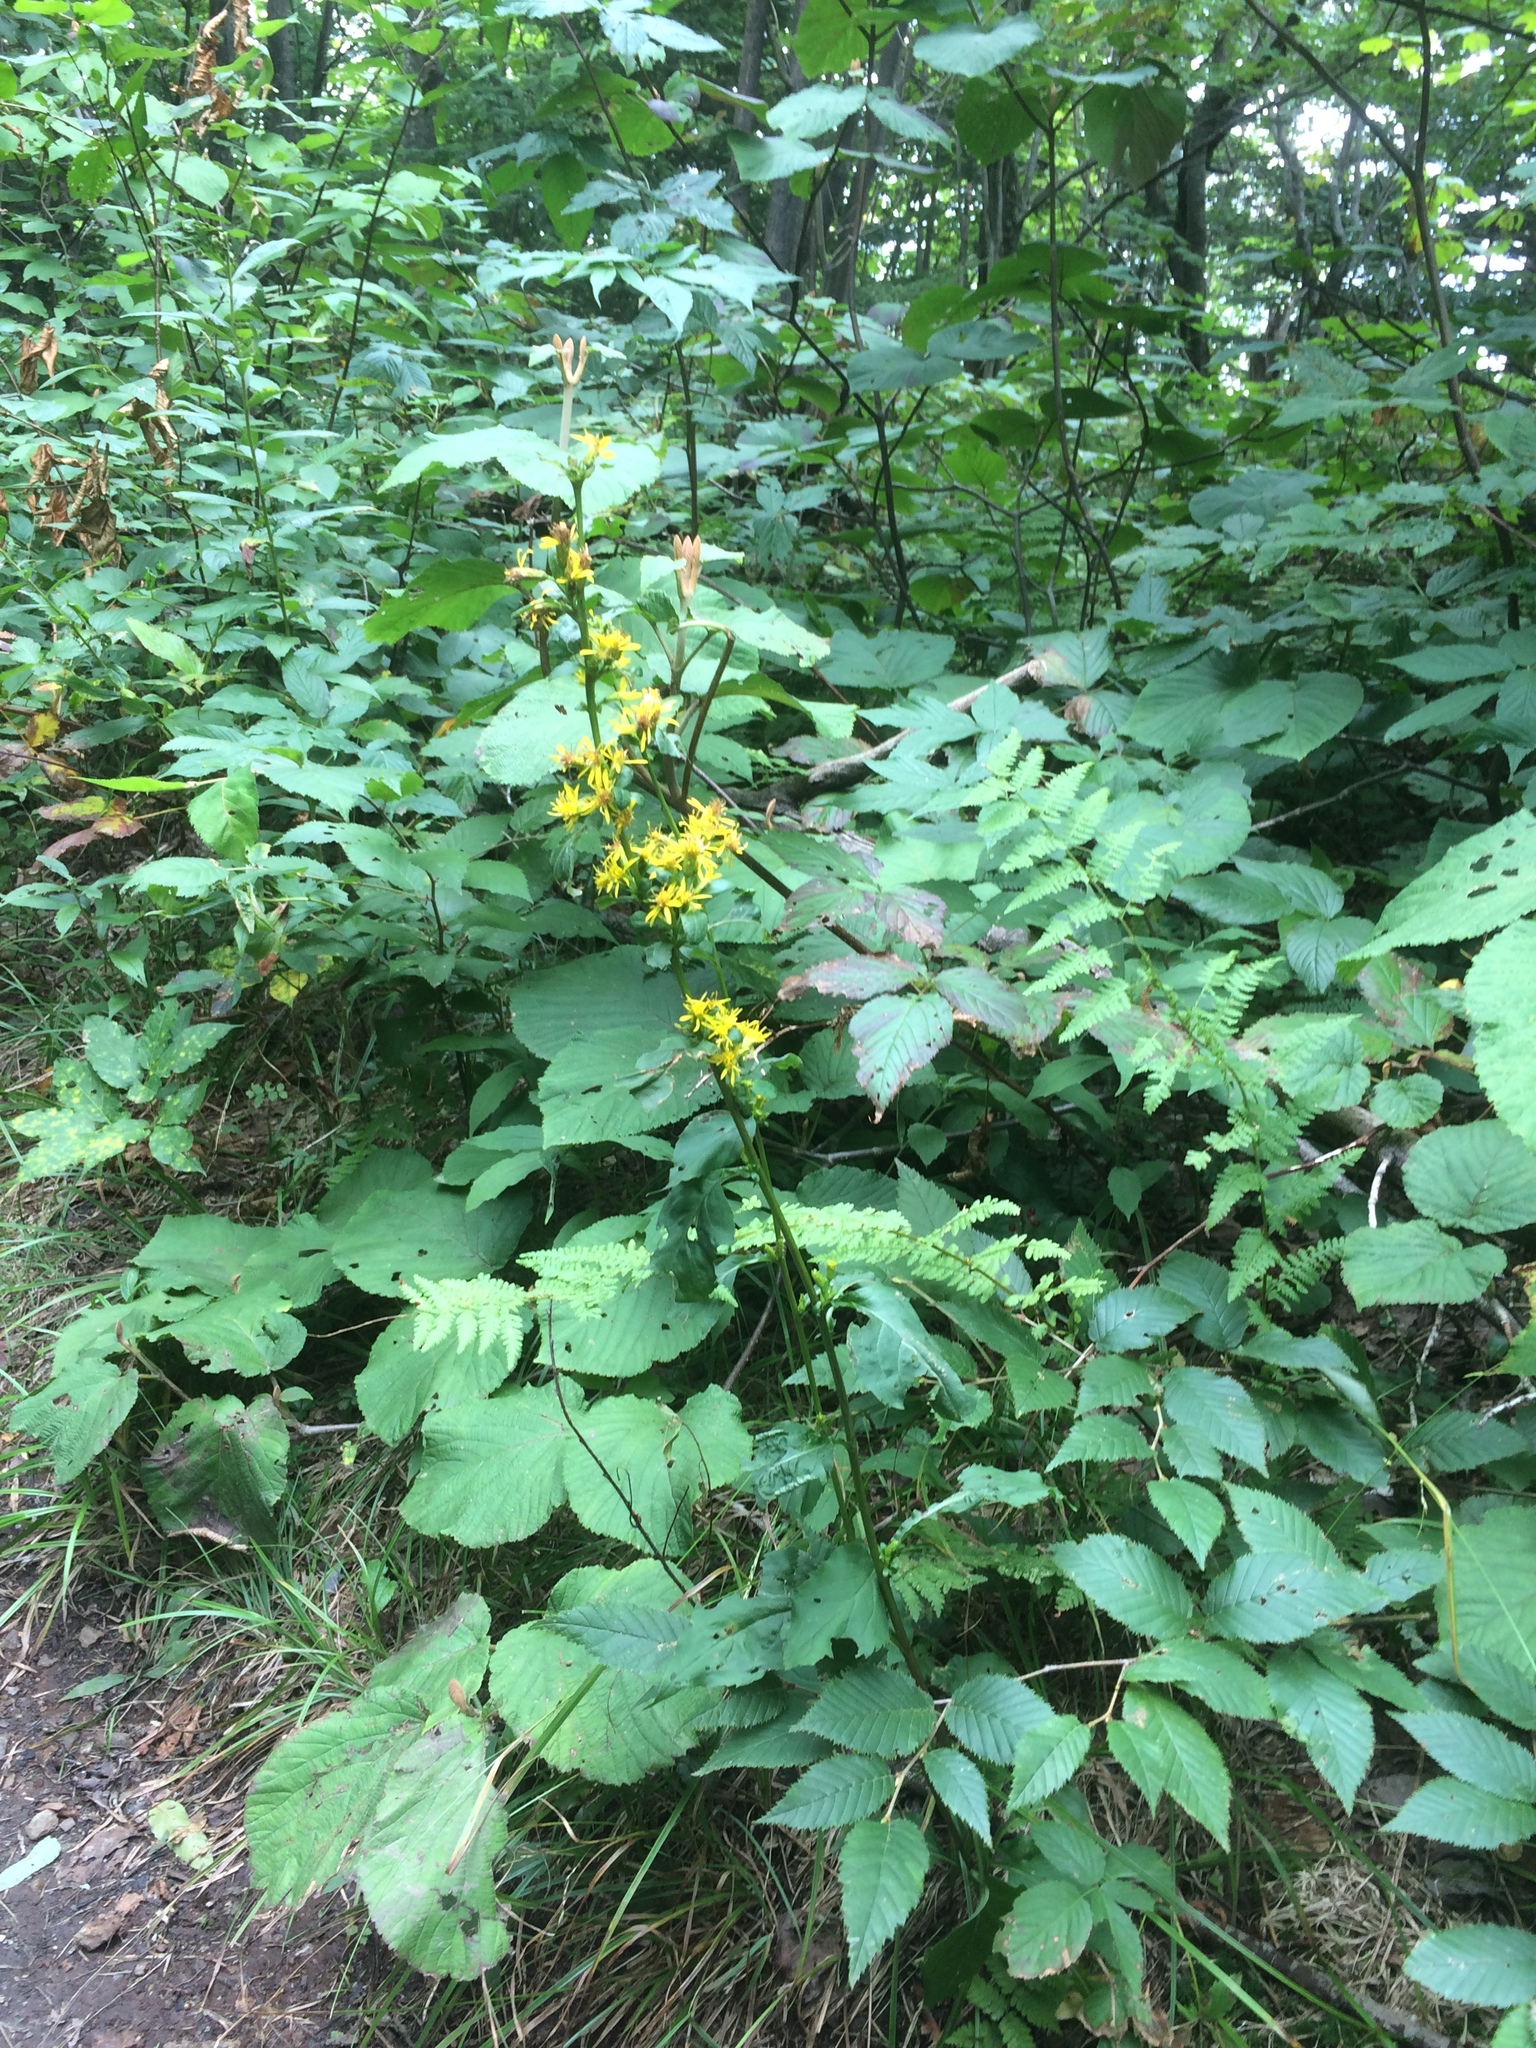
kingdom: Plantae
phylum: Tracheophyta
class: Magnoliopsida
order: Asterales
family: Asteraceae
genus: Solidago
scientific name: Solidago macrophylla
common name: Large-leaved goldenrod
